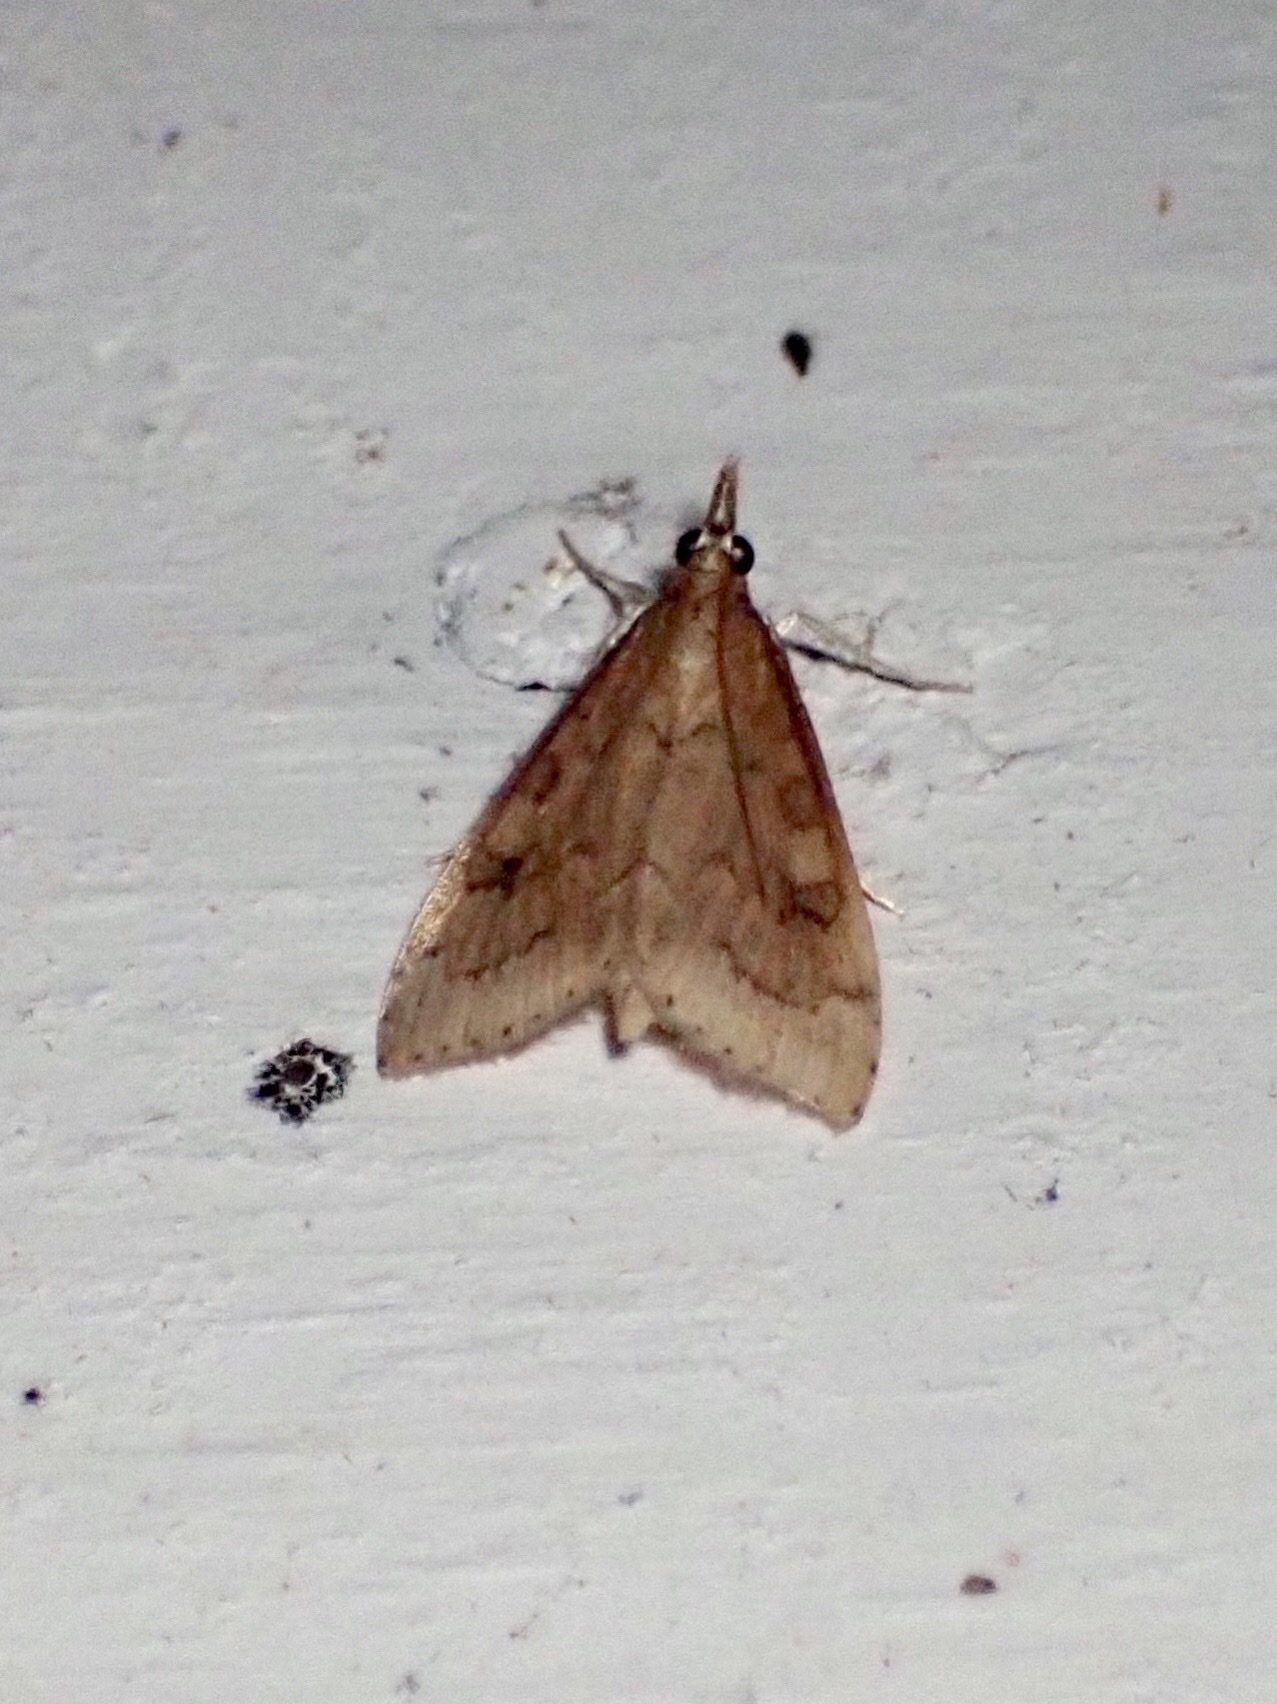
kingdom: Animalia
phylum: Arthropoda
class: Insecta
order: Lepidoptera
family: Crambidae
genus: Udea
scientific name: Udea rubigalis
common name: Celery leaftier moth
